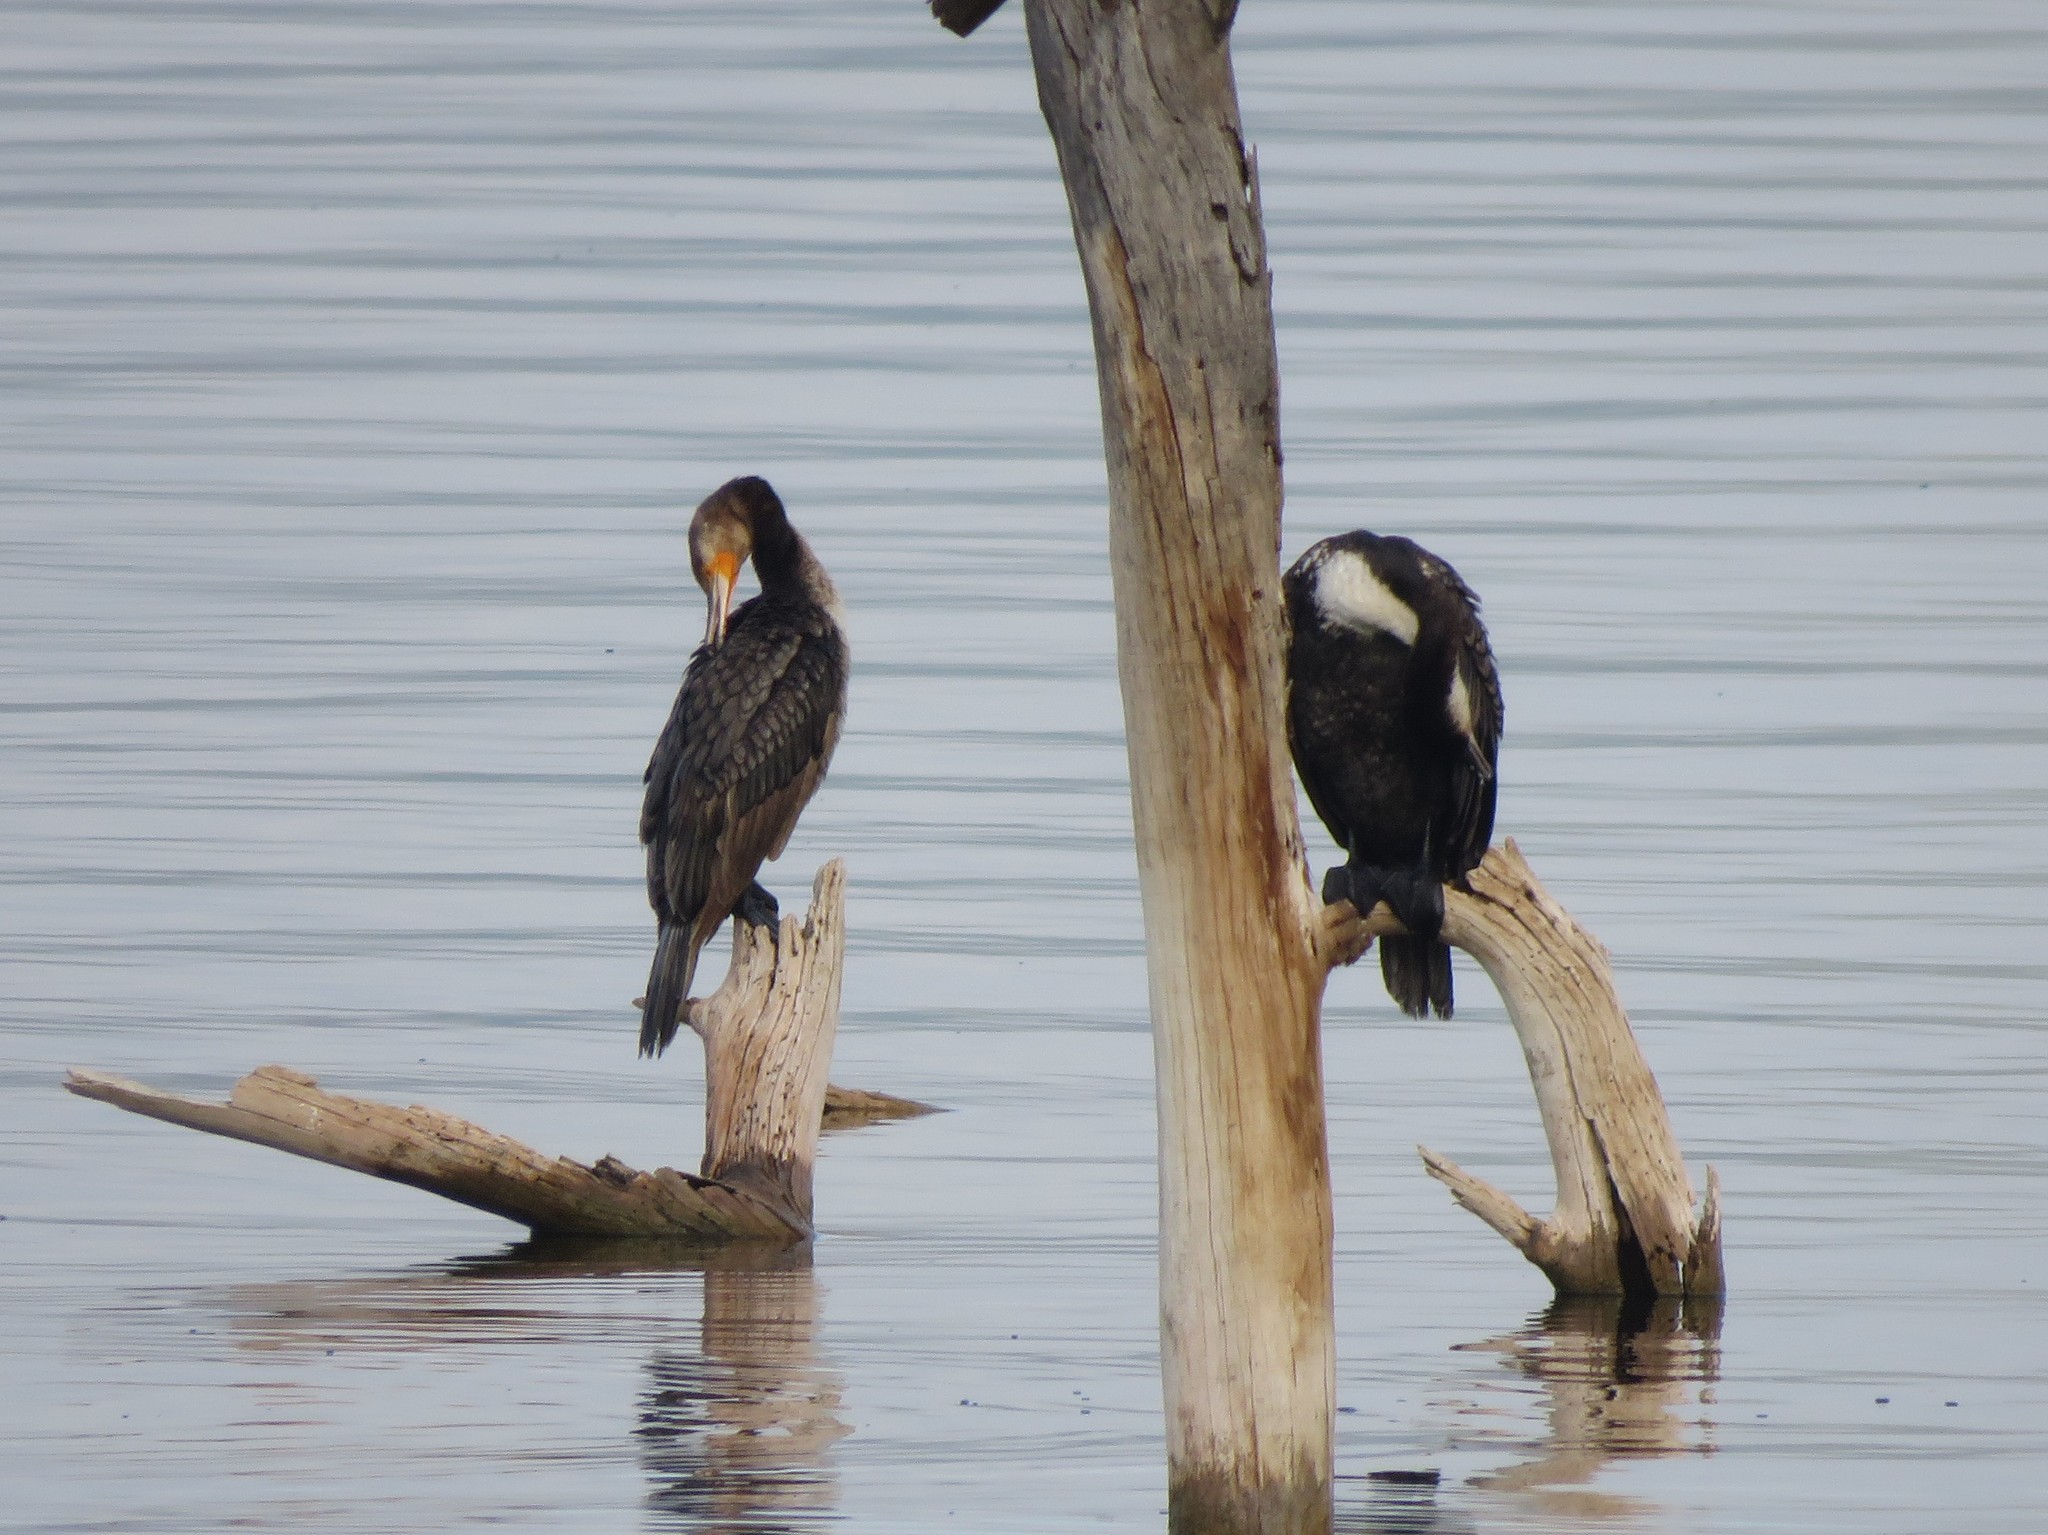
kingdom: Animalia
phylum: Chordata
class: Aves
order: Suliformes
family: Phalacrocoracidae
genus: Phalacrocorax
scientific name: Phalacrocorax carbo
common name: Great cormorant
